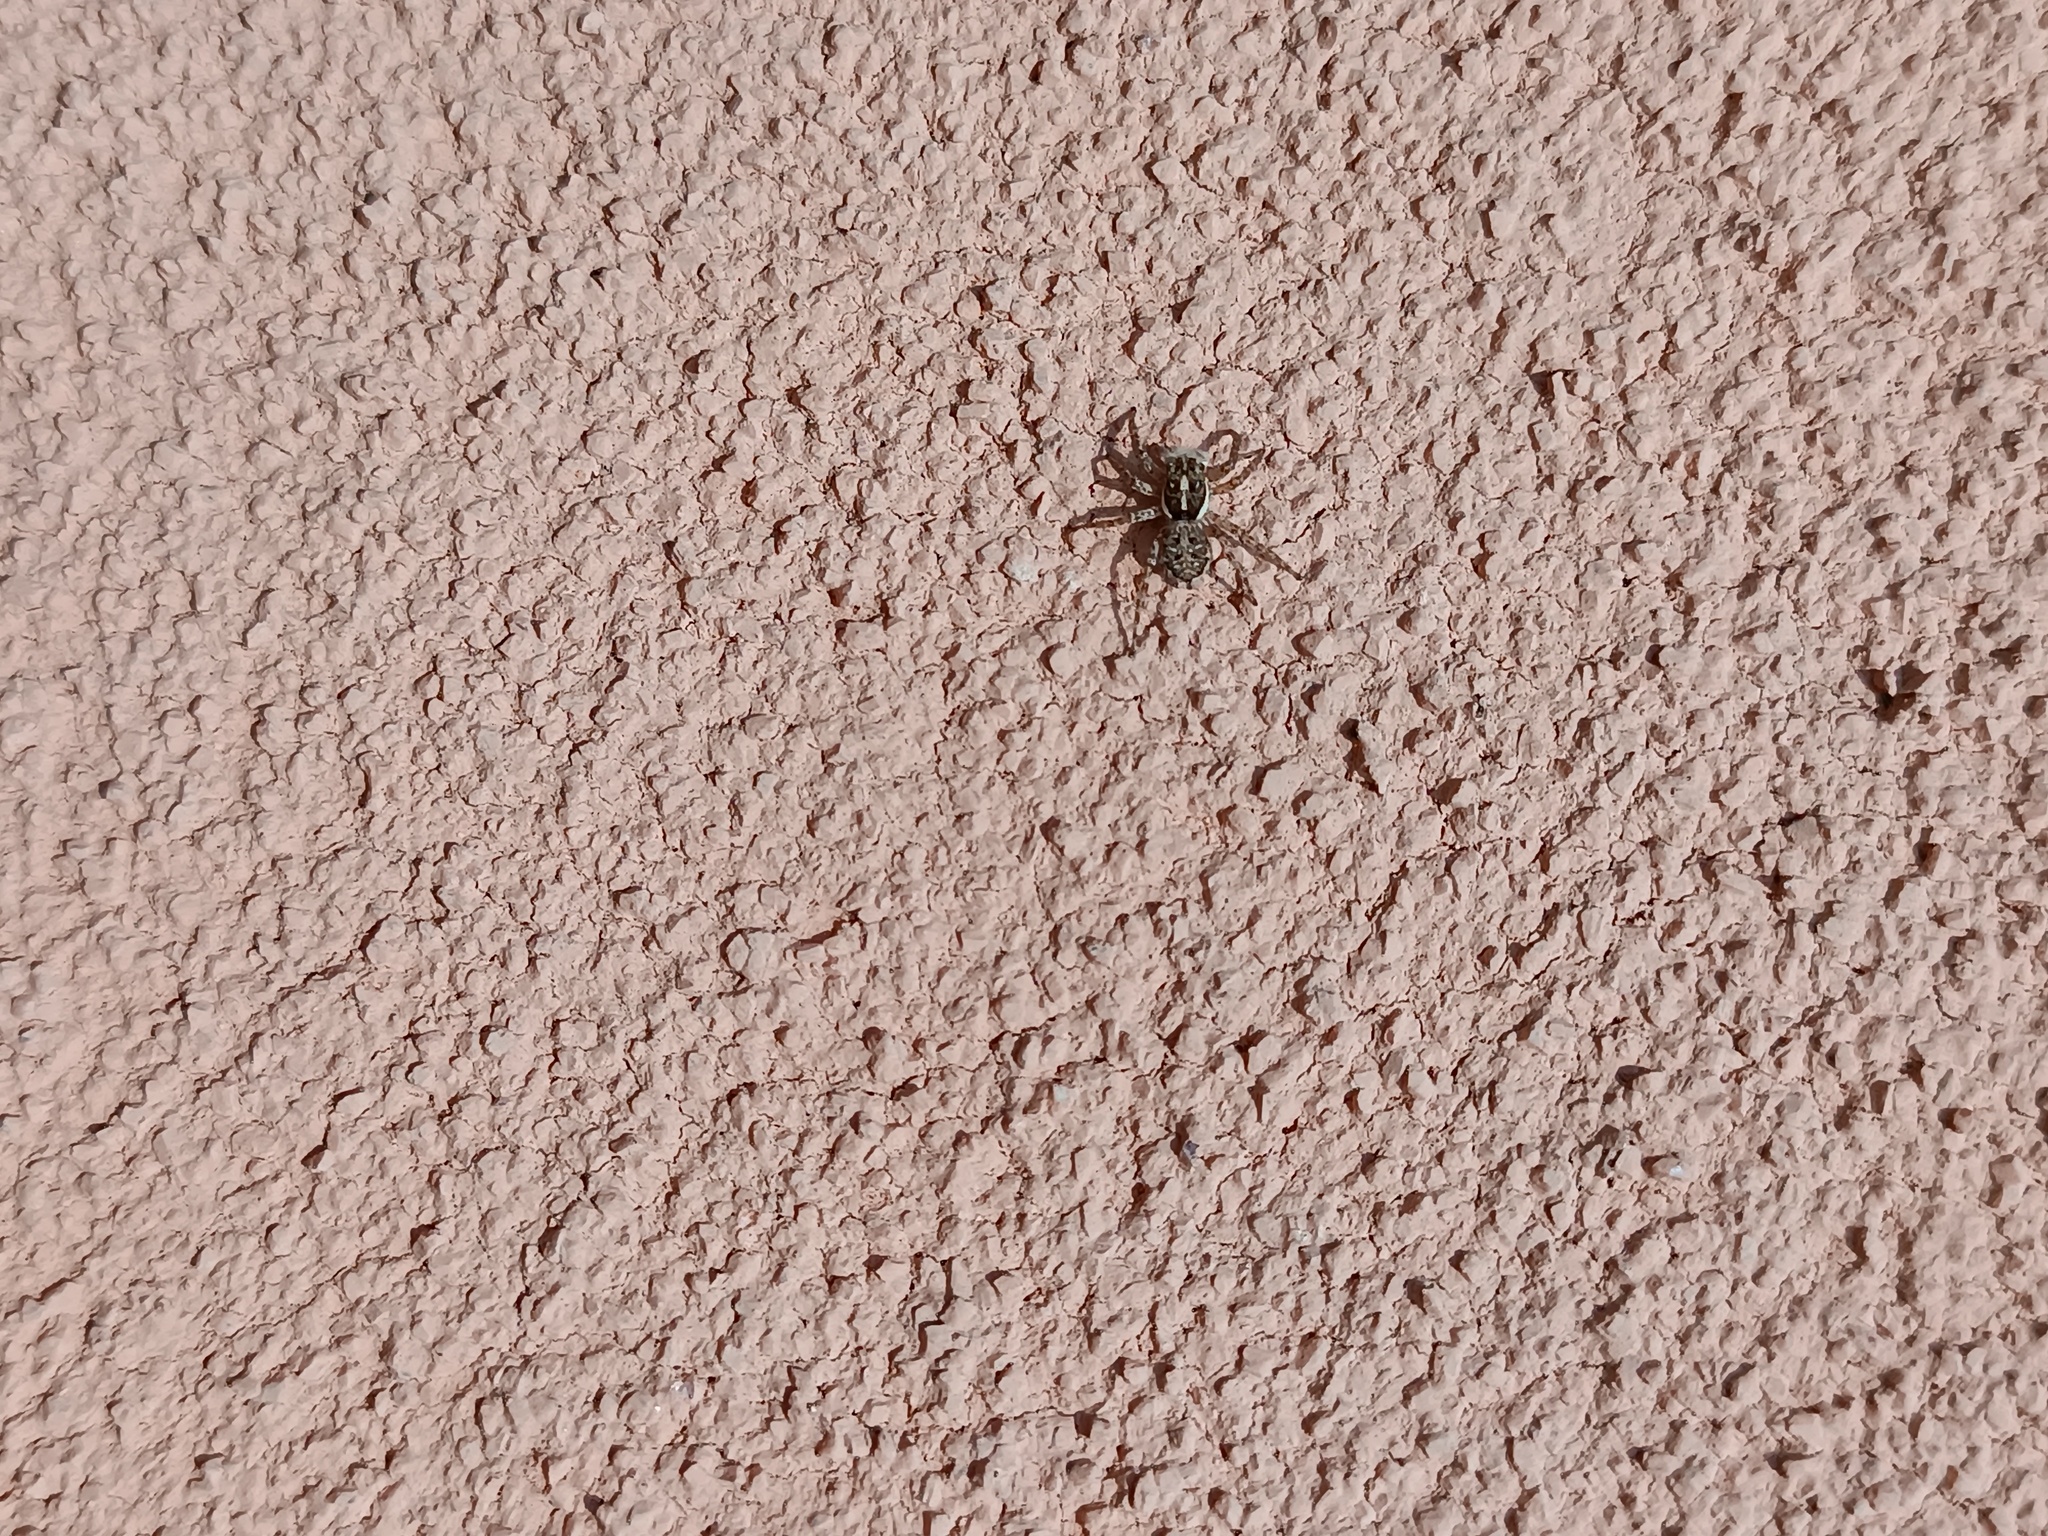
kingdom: Animalia
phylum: Arthropoda
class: Arachnida
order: Araneae
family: Salticidae
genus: Menemerus
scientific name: Menemerus semilimbatus
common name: Jumping spider
